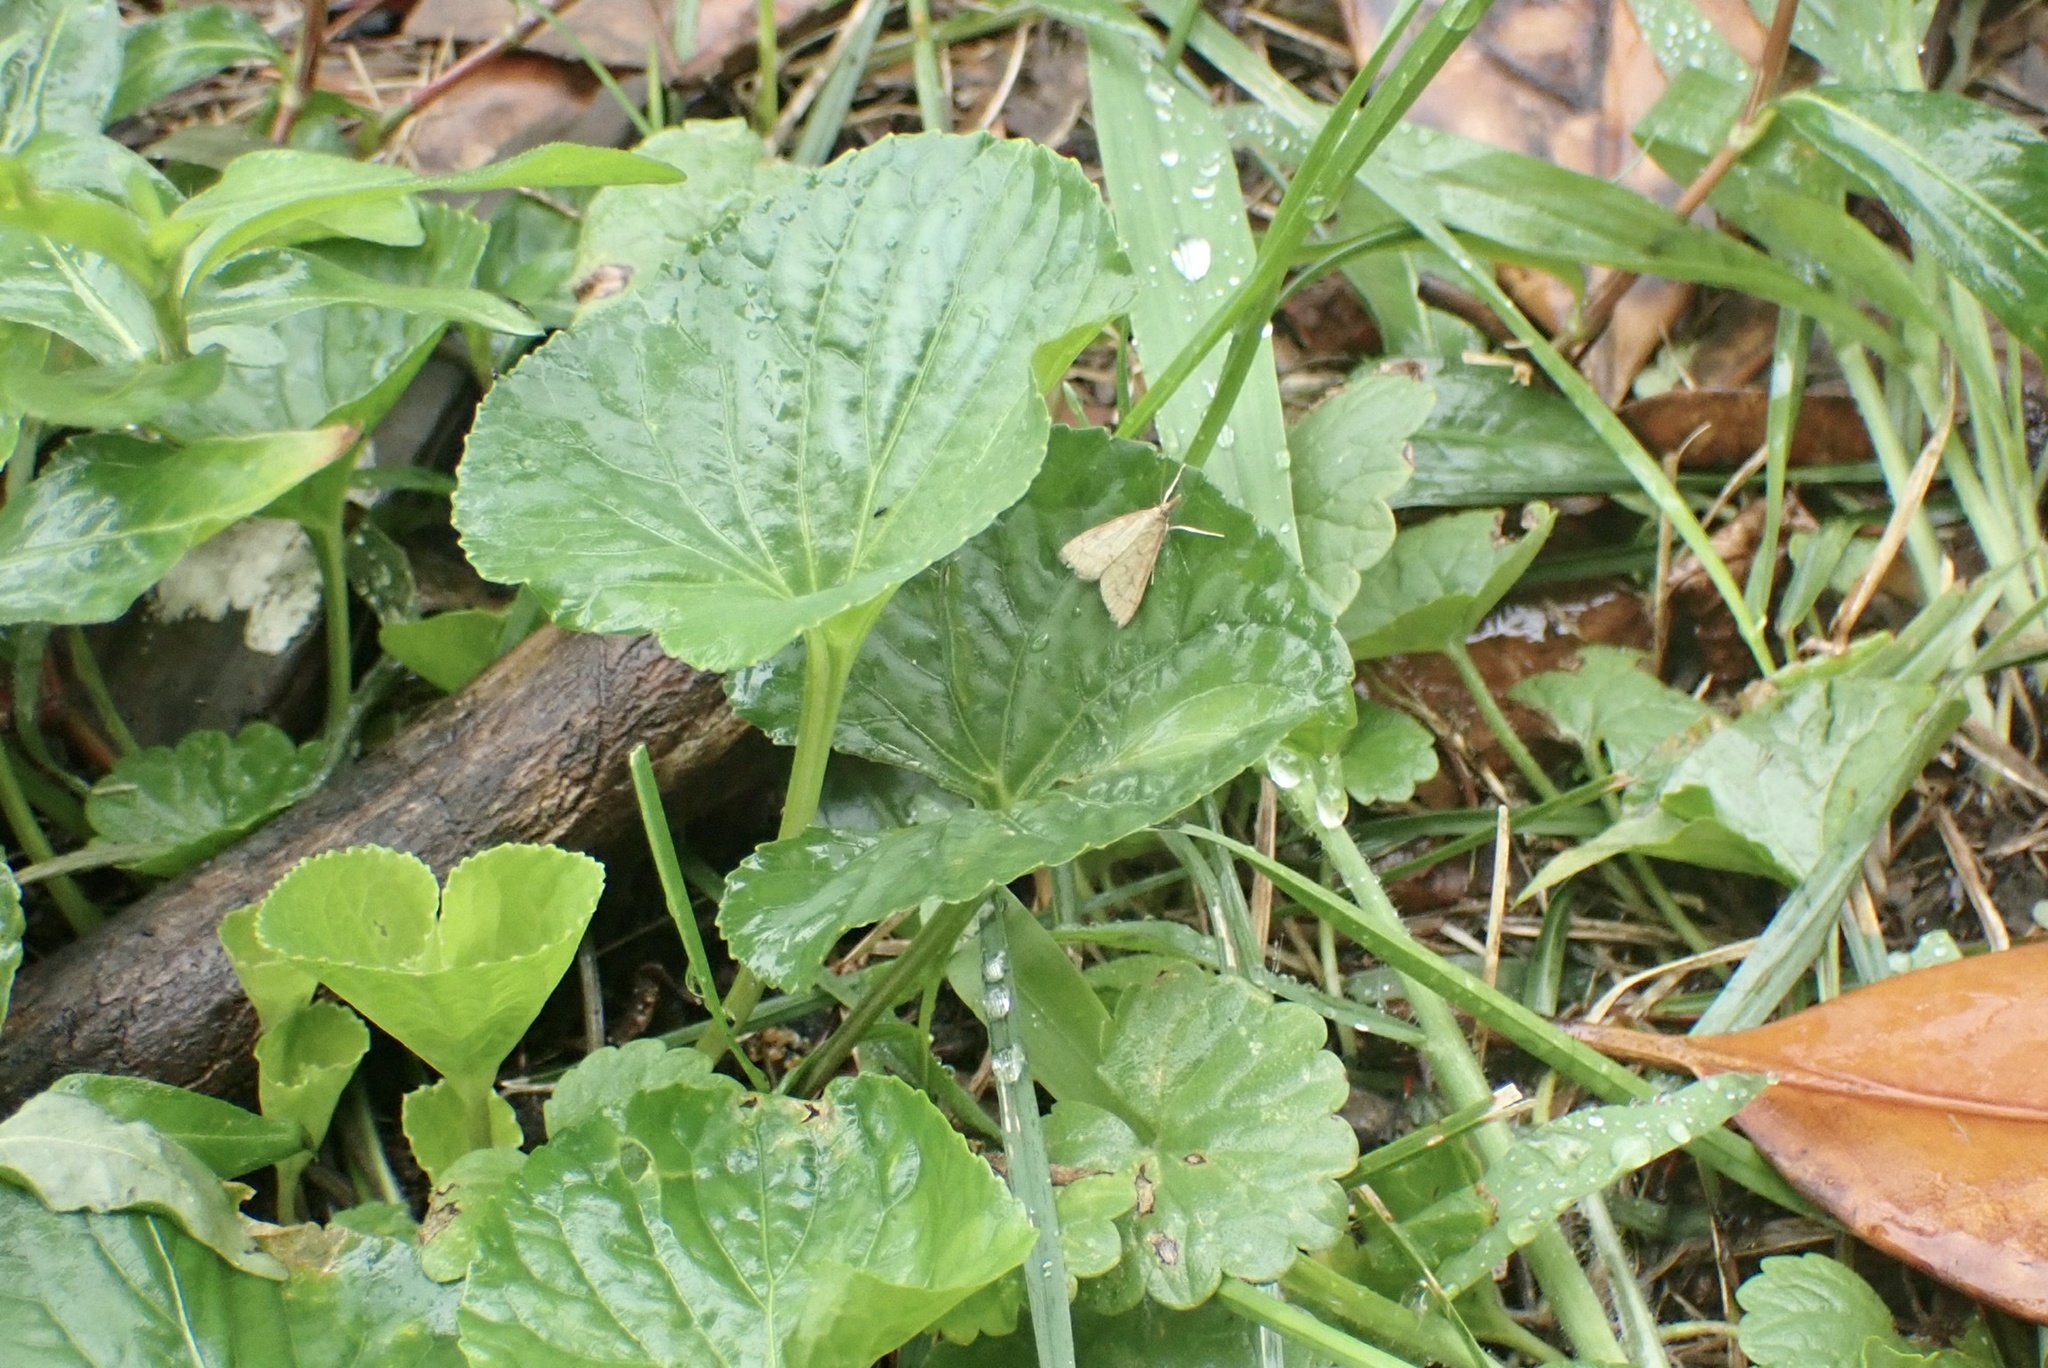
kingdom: Animalia
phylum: Arthropoda
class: Insecta
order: Lepidoptera
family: Crambidae
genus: Udea
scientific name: Udea rubigalis
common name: Celery leaftier moth
